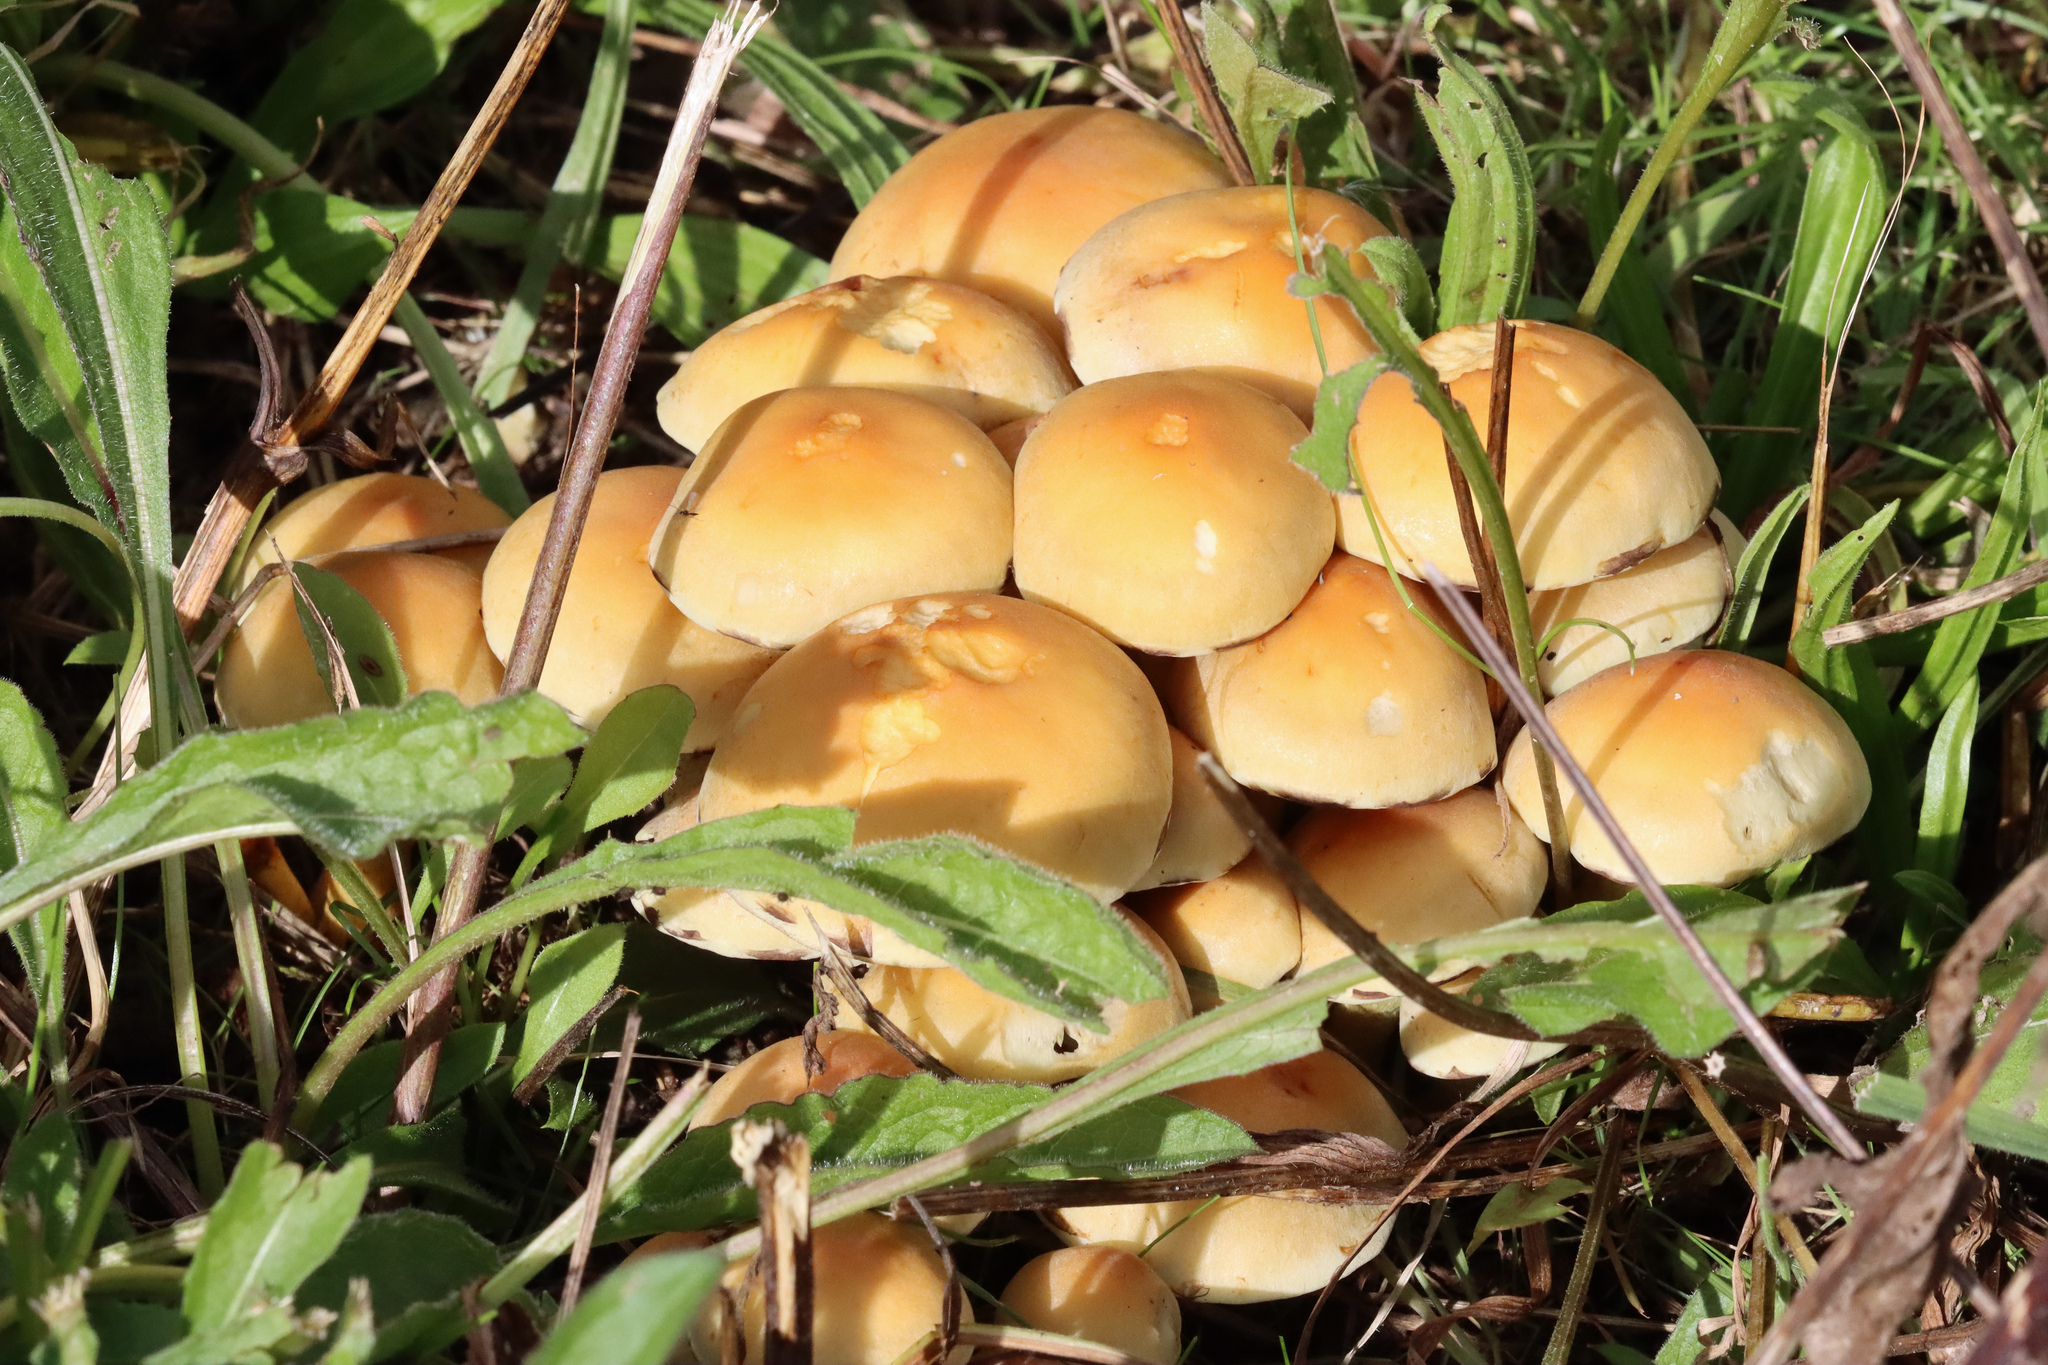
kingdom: Fungi
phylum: Basidiomycota
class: Agaricomycetes
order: Agaricales
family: Strophariaceae
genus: Hypholoma
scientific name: Hypholoma fasciculare
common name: Sulphur tuft
